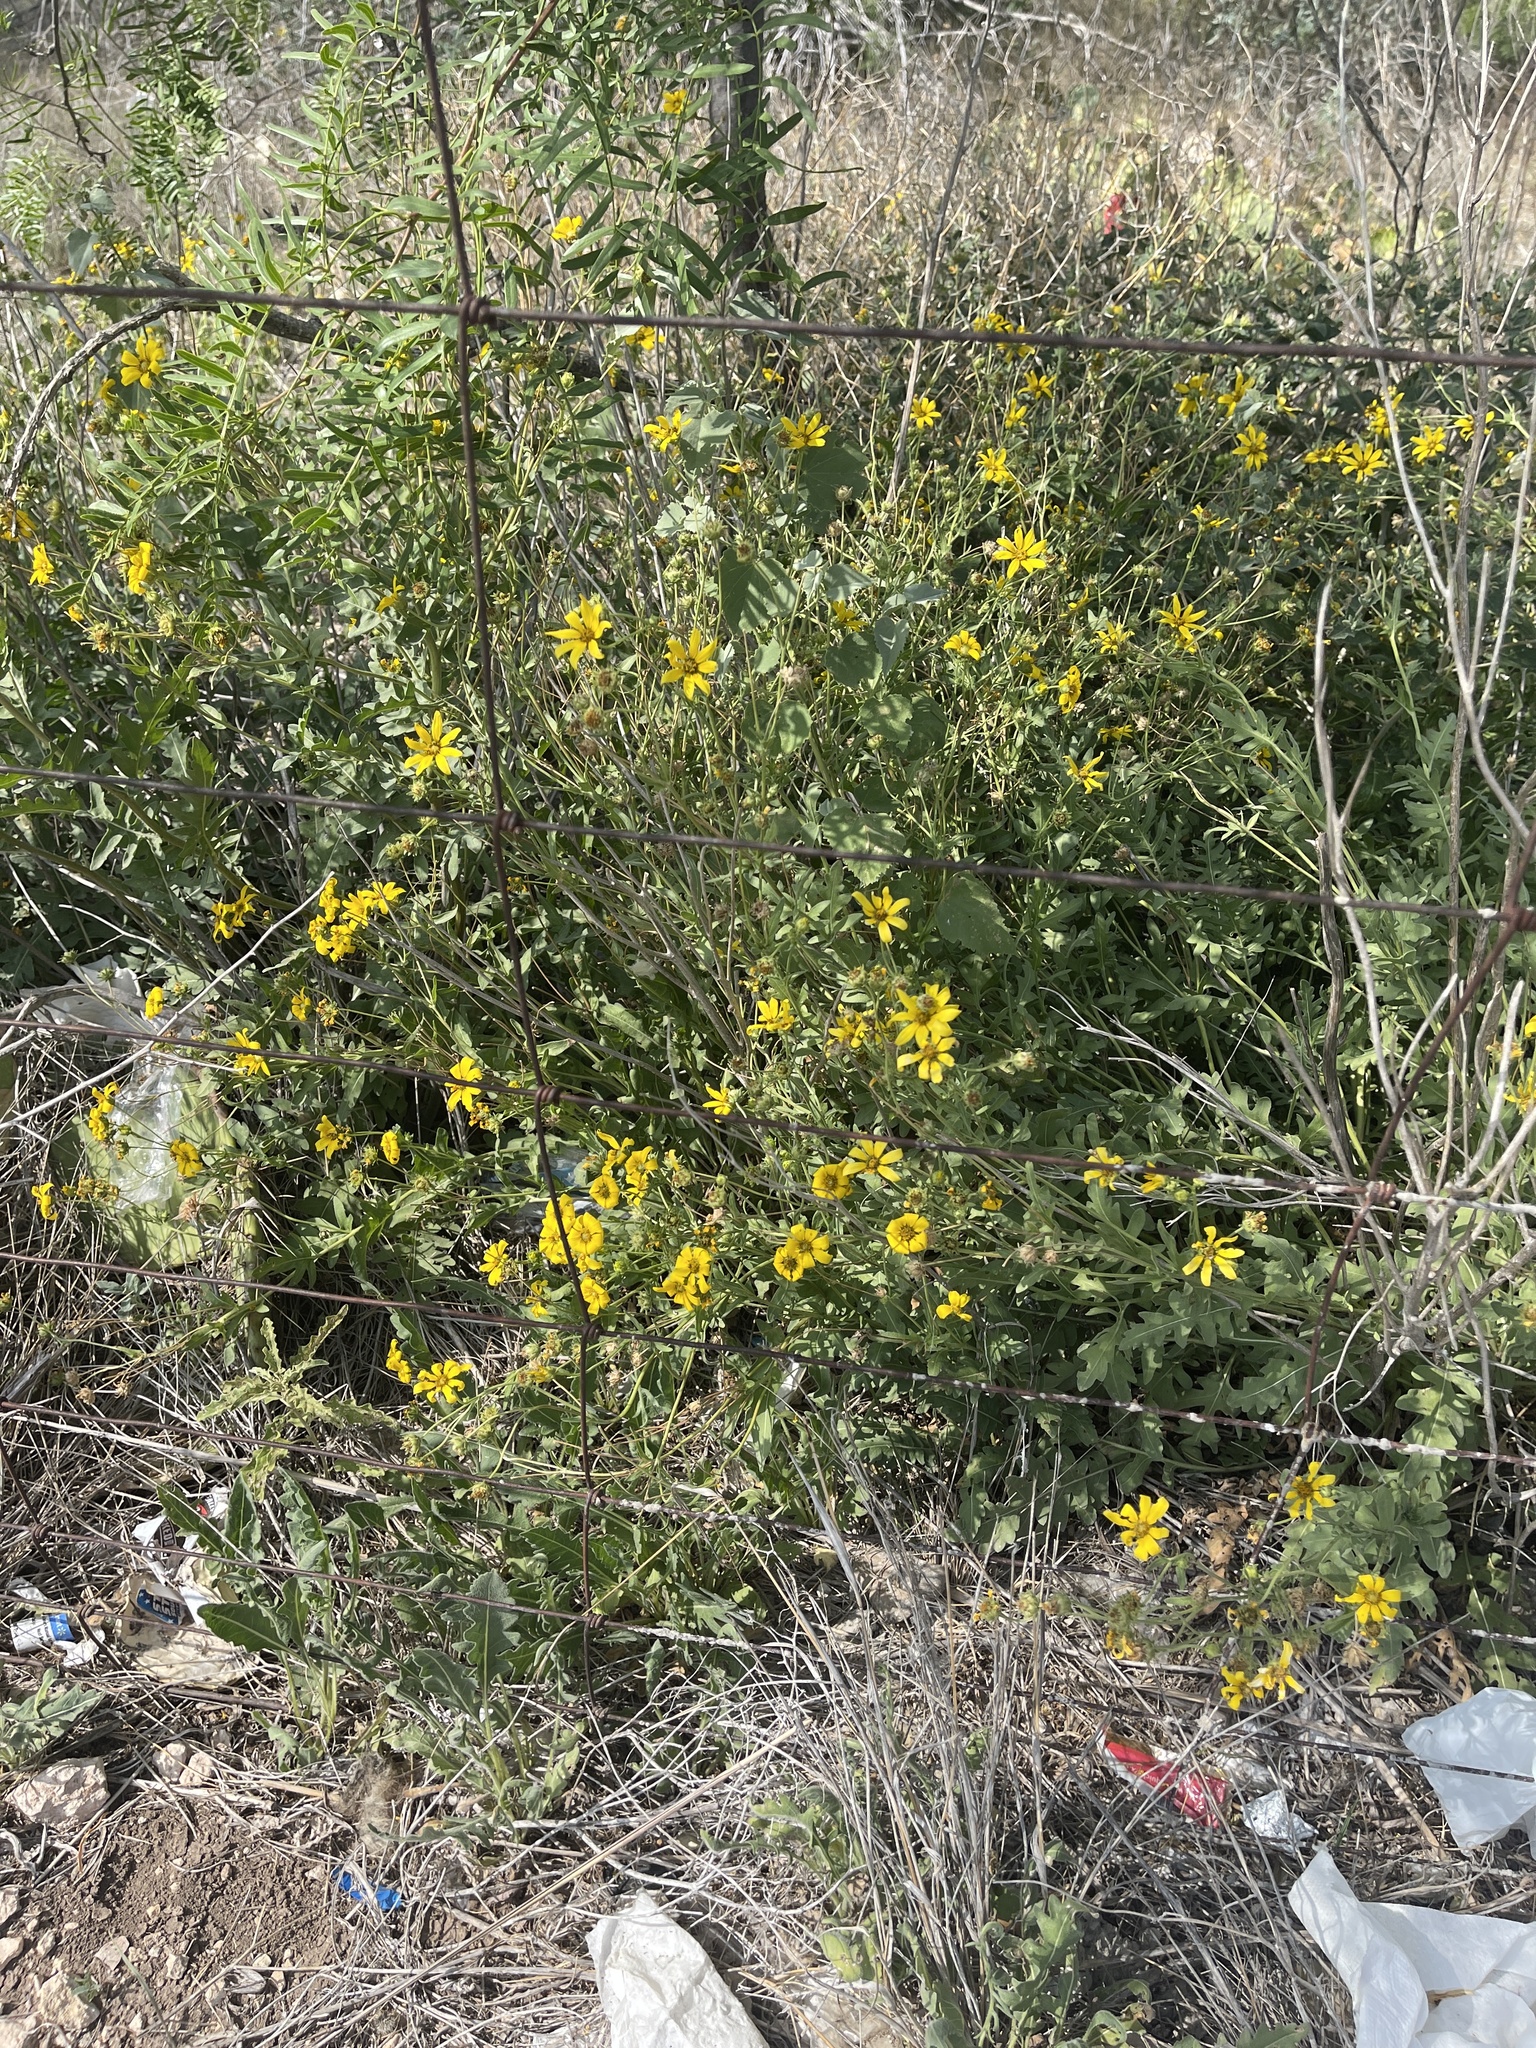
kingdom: Plantae
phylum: Tracheophyta
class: Magnoliopsida
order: Asterales
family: Asteraceae
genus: Engelmannia
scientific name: Engelmannia peristenia
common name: Engelmann's daisy
